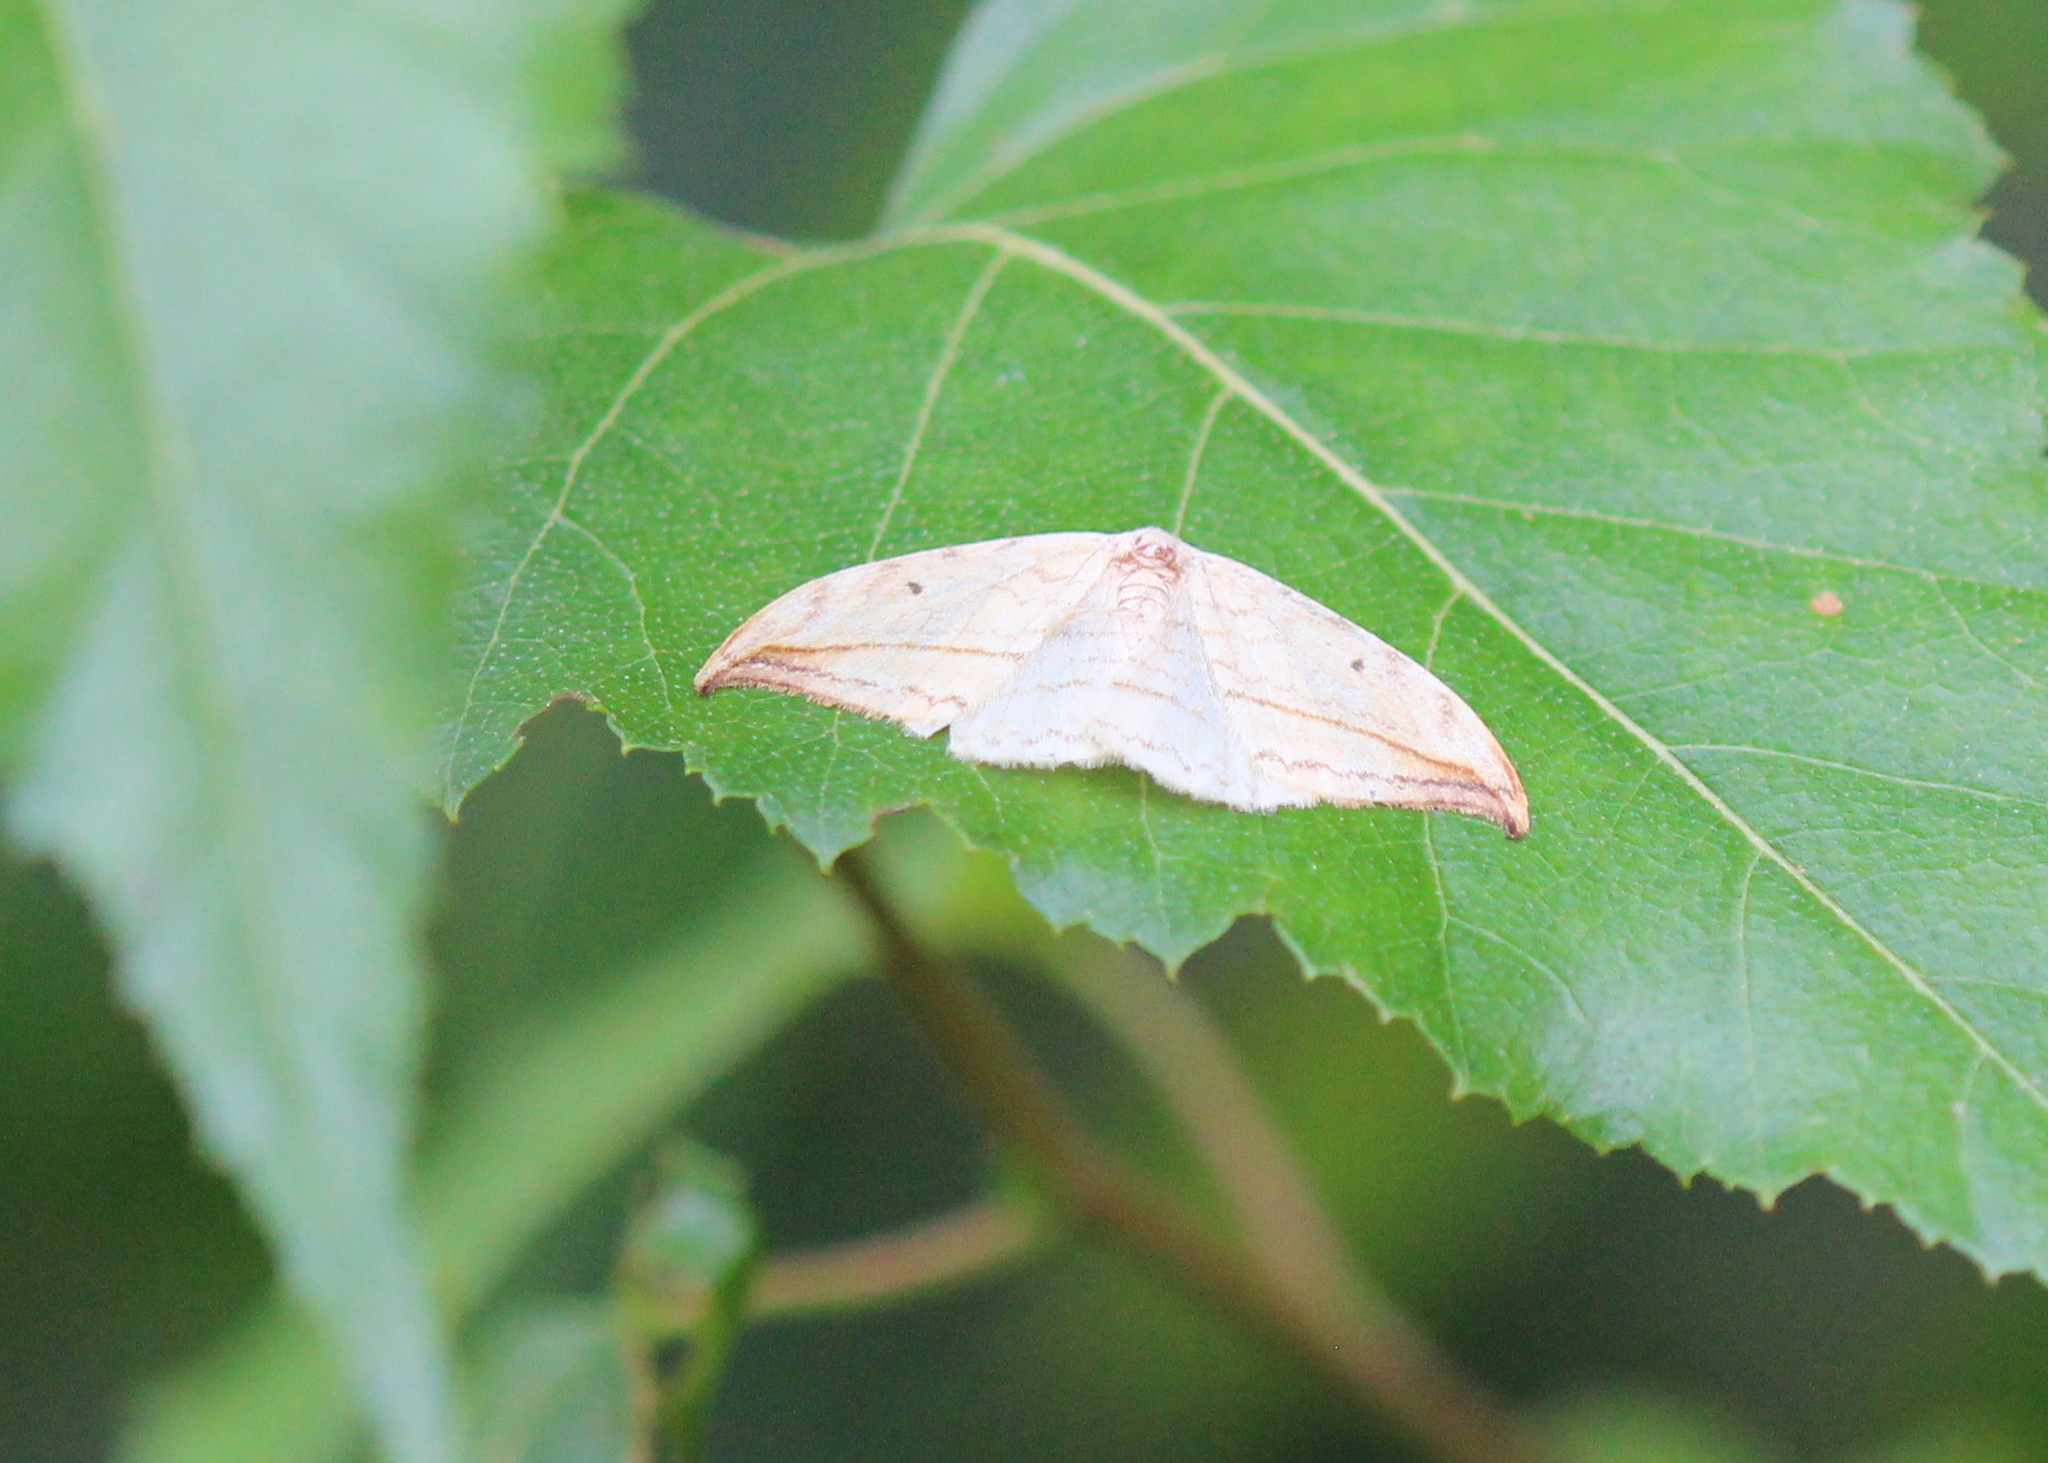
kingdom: Animalia
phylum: Arthropoda
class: Insecta
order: Lepidoptera
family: Drepanidae
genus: Drepana
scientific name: Drepana arcuata
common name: Arched hooktip moth
